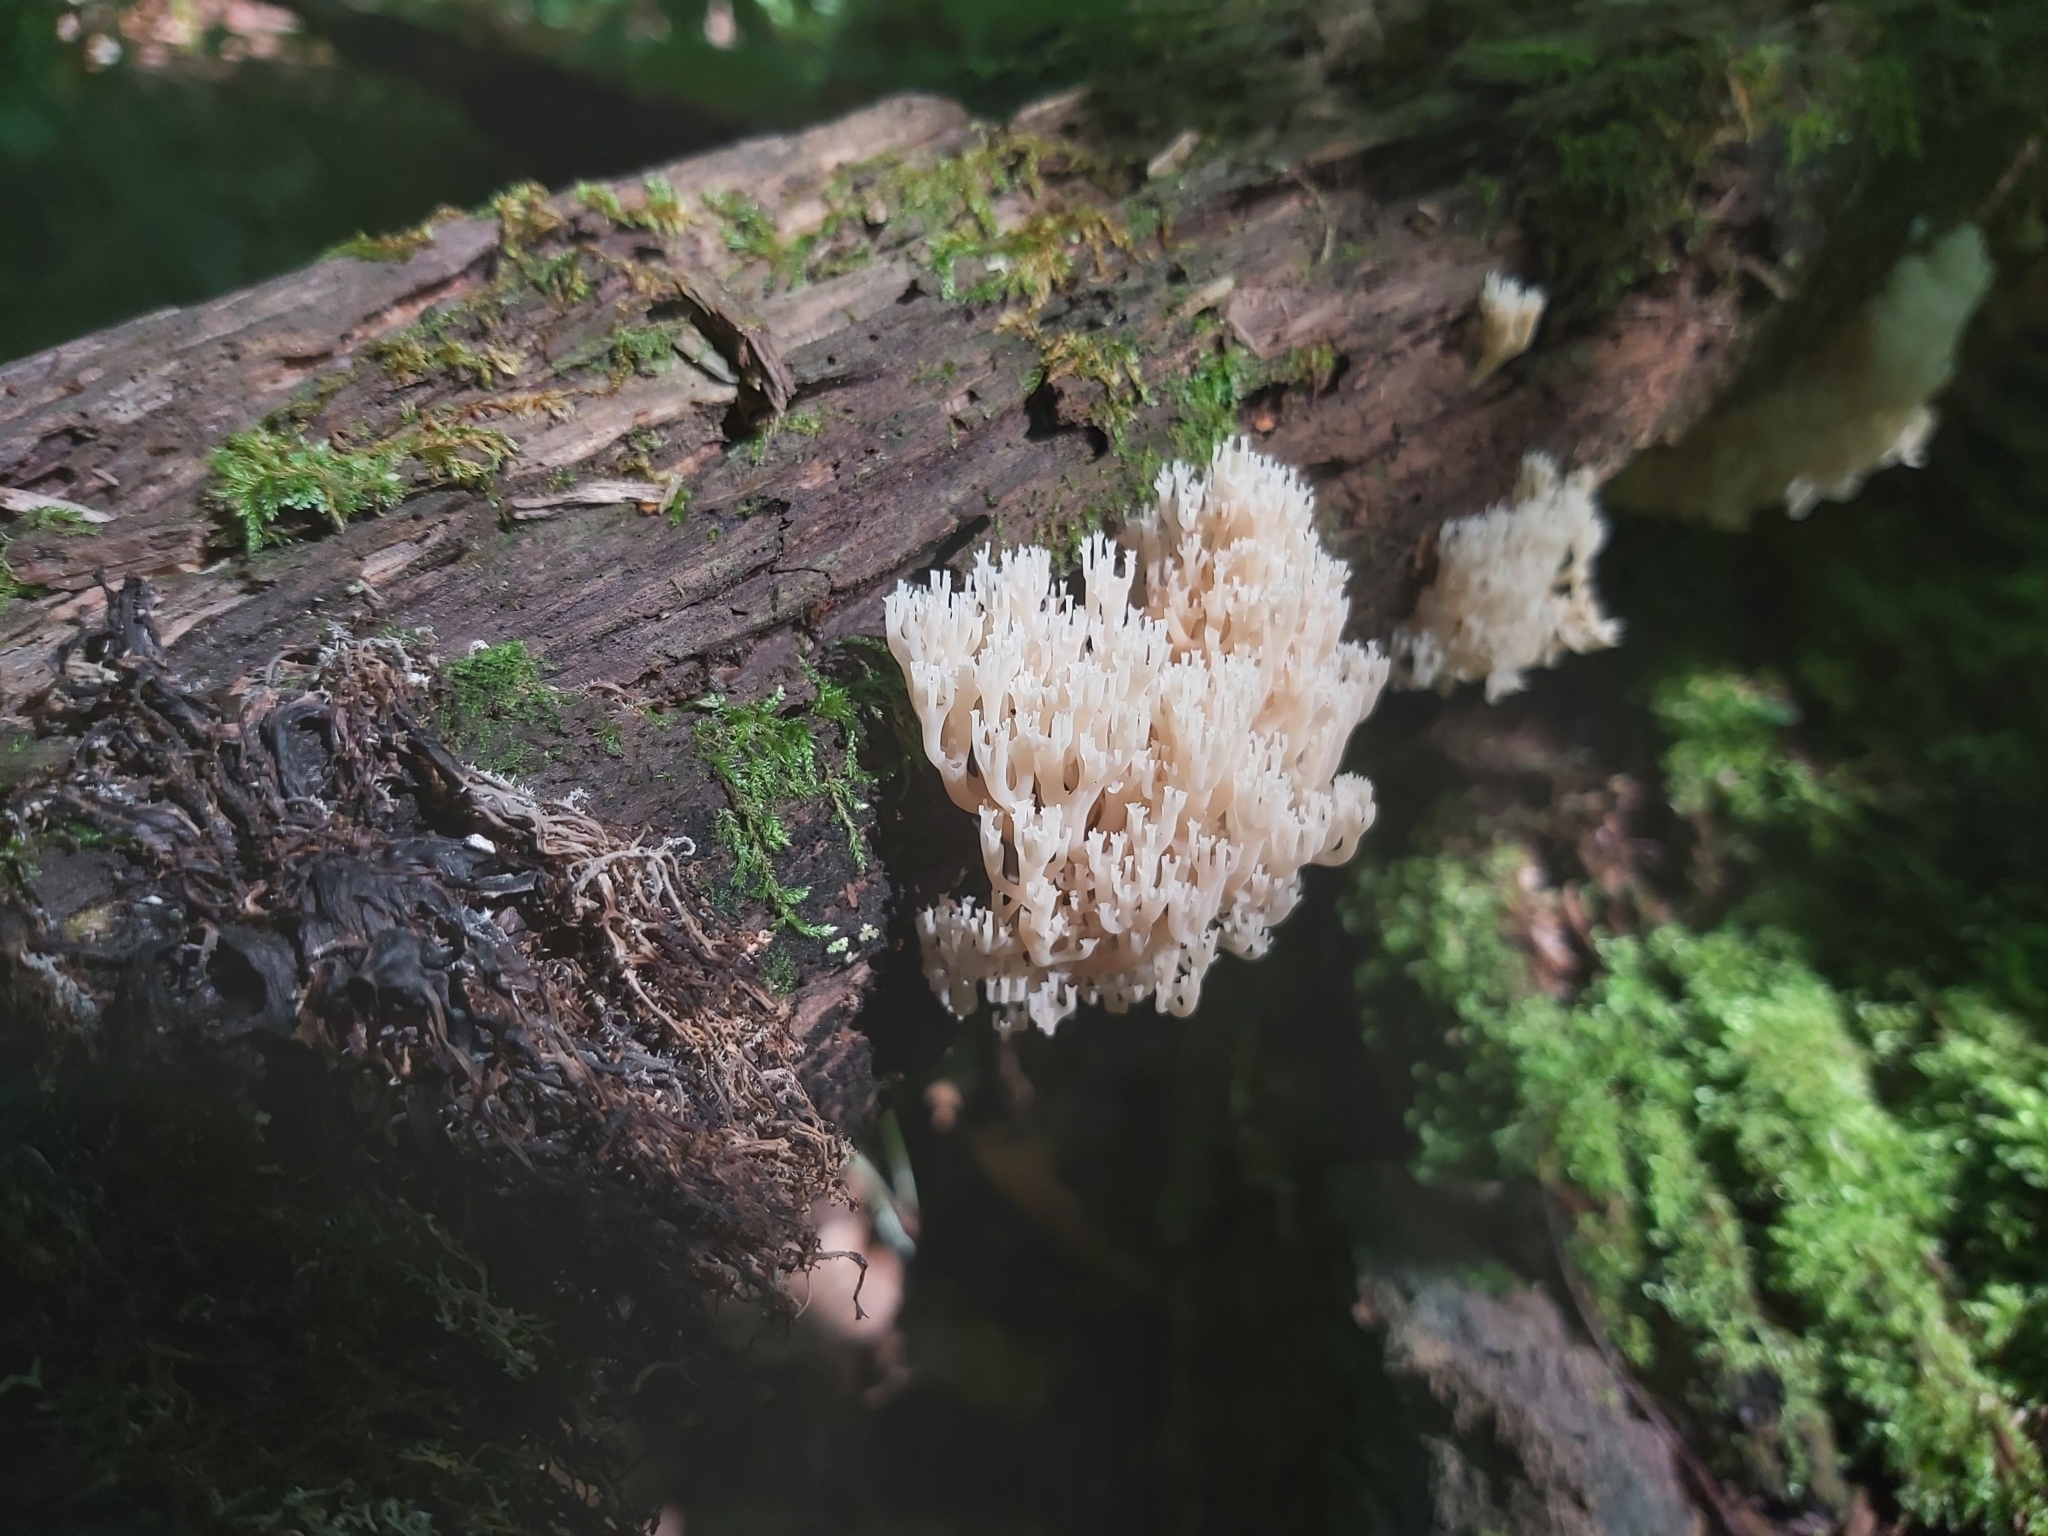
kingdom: Fungi
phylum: Basidiomycota
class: Agaricomycetes
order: Russulales
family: Auriscalpiaceae
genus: Artomyces
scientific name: Artomyces pyxidatus
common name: Crown-tipped coral fungus
